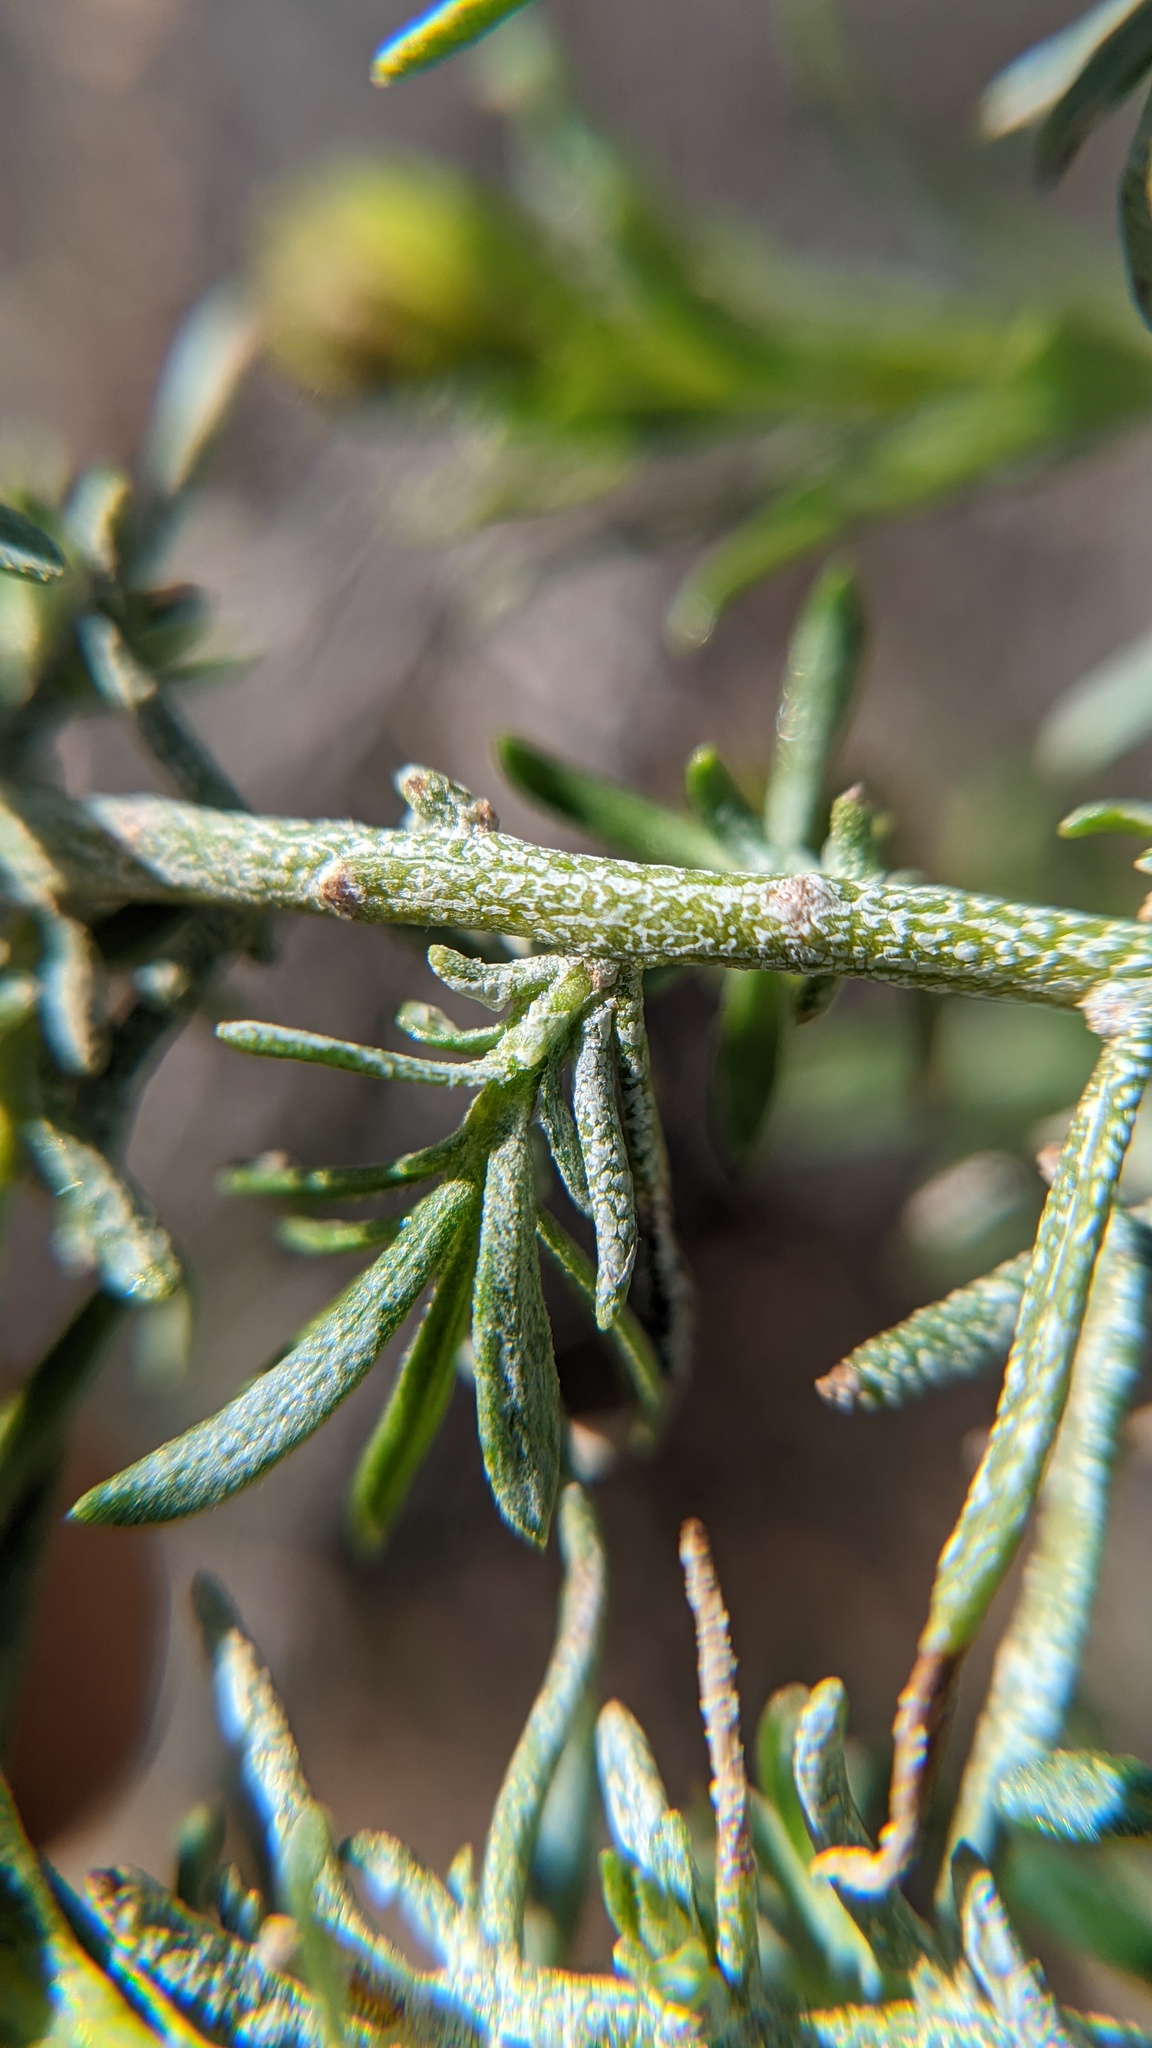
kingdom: Plantae
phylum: Tracheophyta
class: Magnoliopsida
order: Asterales
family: Asteraceae
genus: Ericameria
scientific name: Ericameria linearifolia
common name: Interior goldenbush
